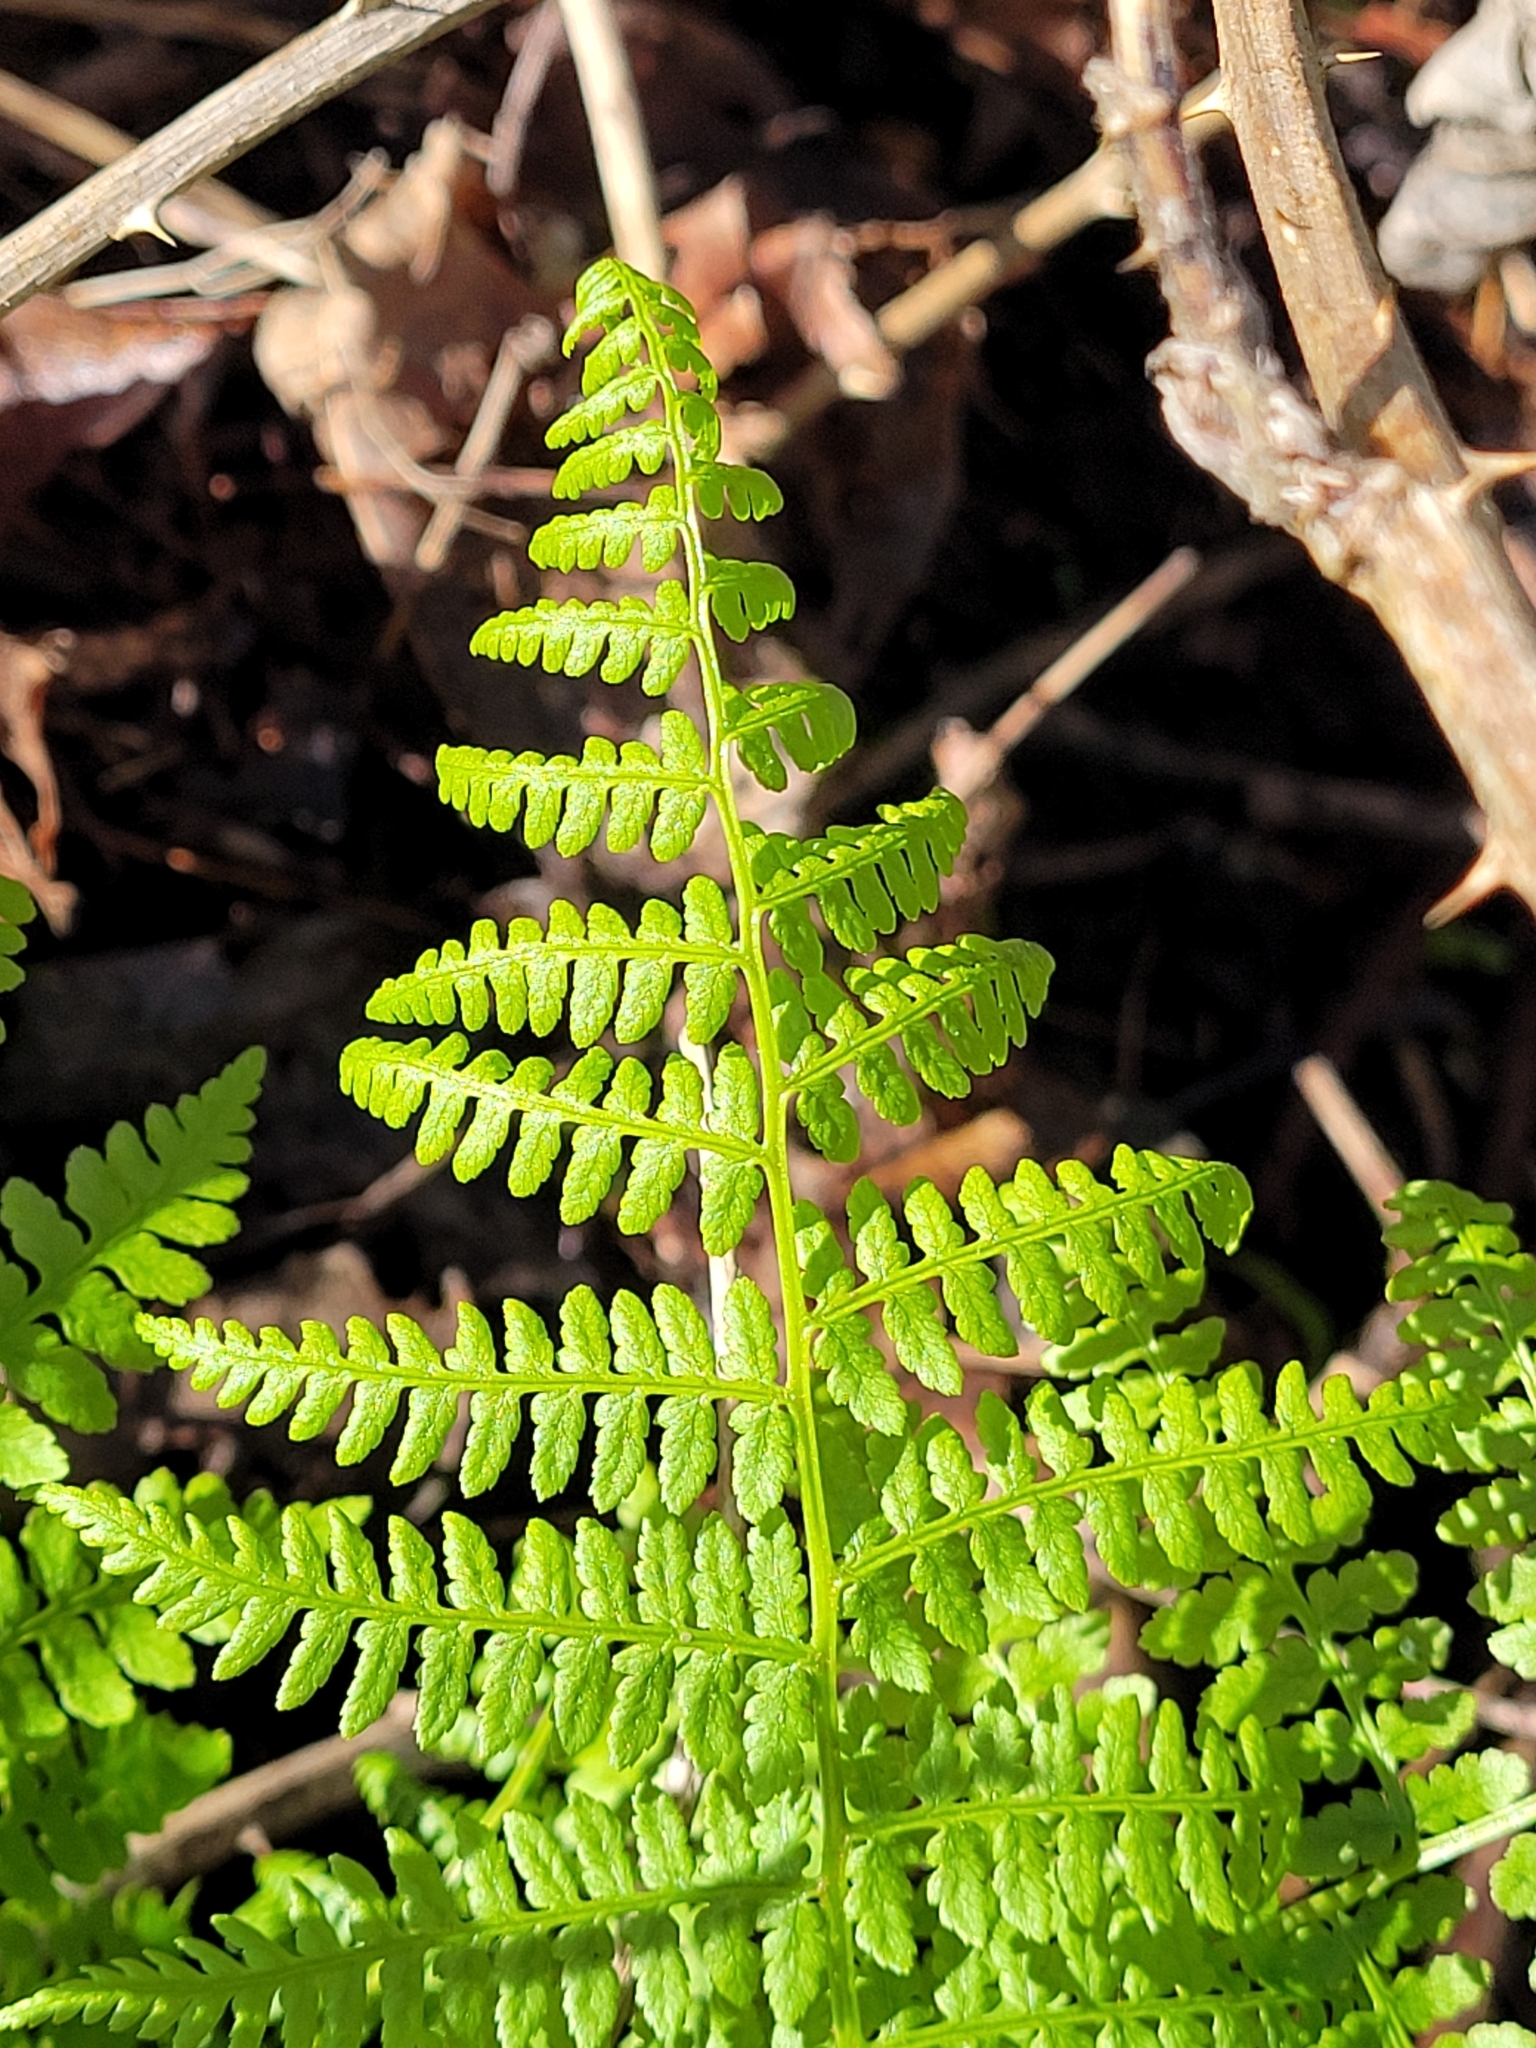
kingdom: Plantae
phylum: Tracheophyta
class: Polypodiopsida
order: Polypodiales
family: Athyriaceae
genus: Athyrium
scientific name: Athyrium cyclosorum
